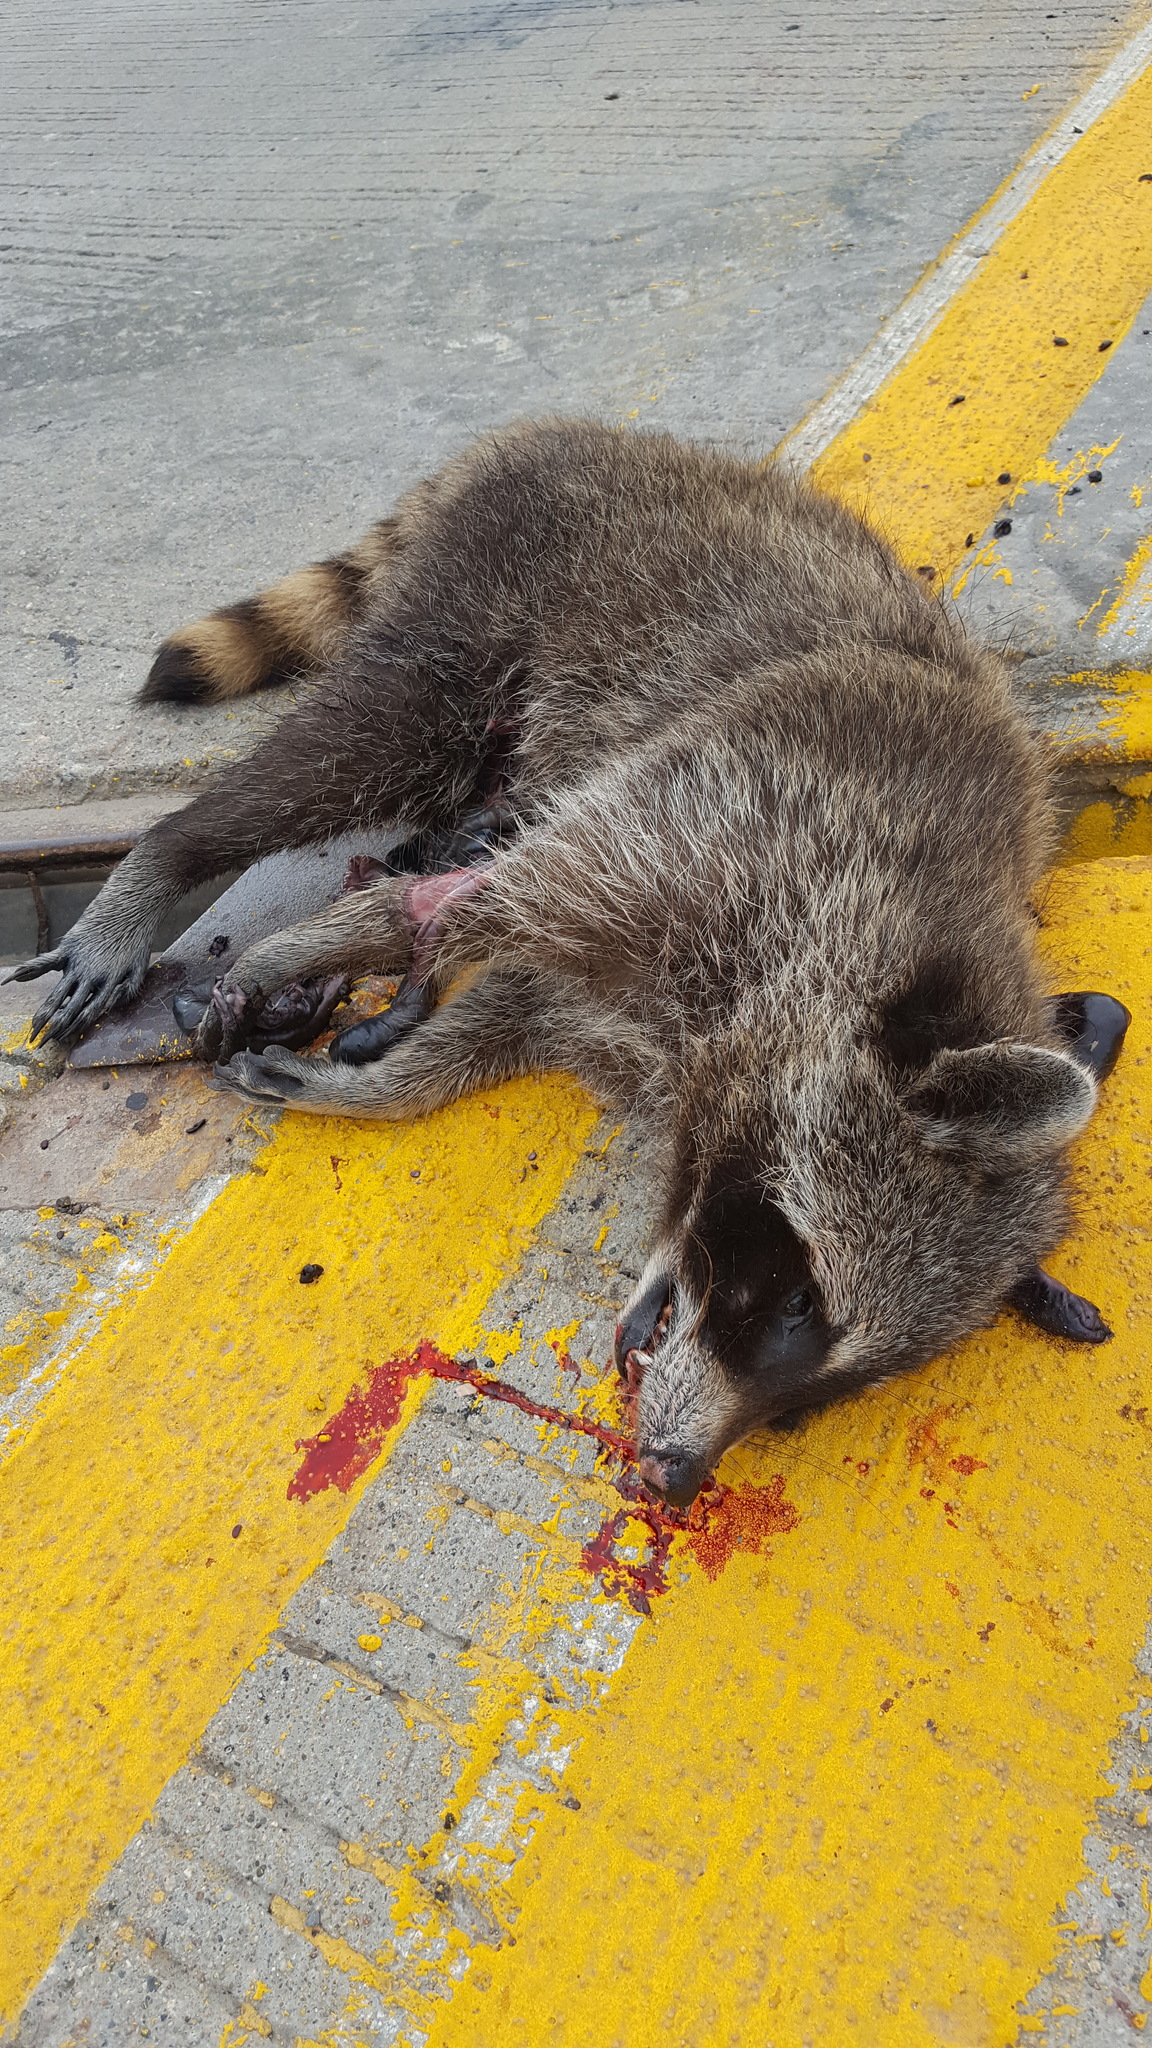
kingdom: Animalia
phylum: Chordata
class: Mammalia
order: Carnivora
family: Procyonidae
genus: Procyon
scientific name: Procyon lotor
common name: Raccoon
